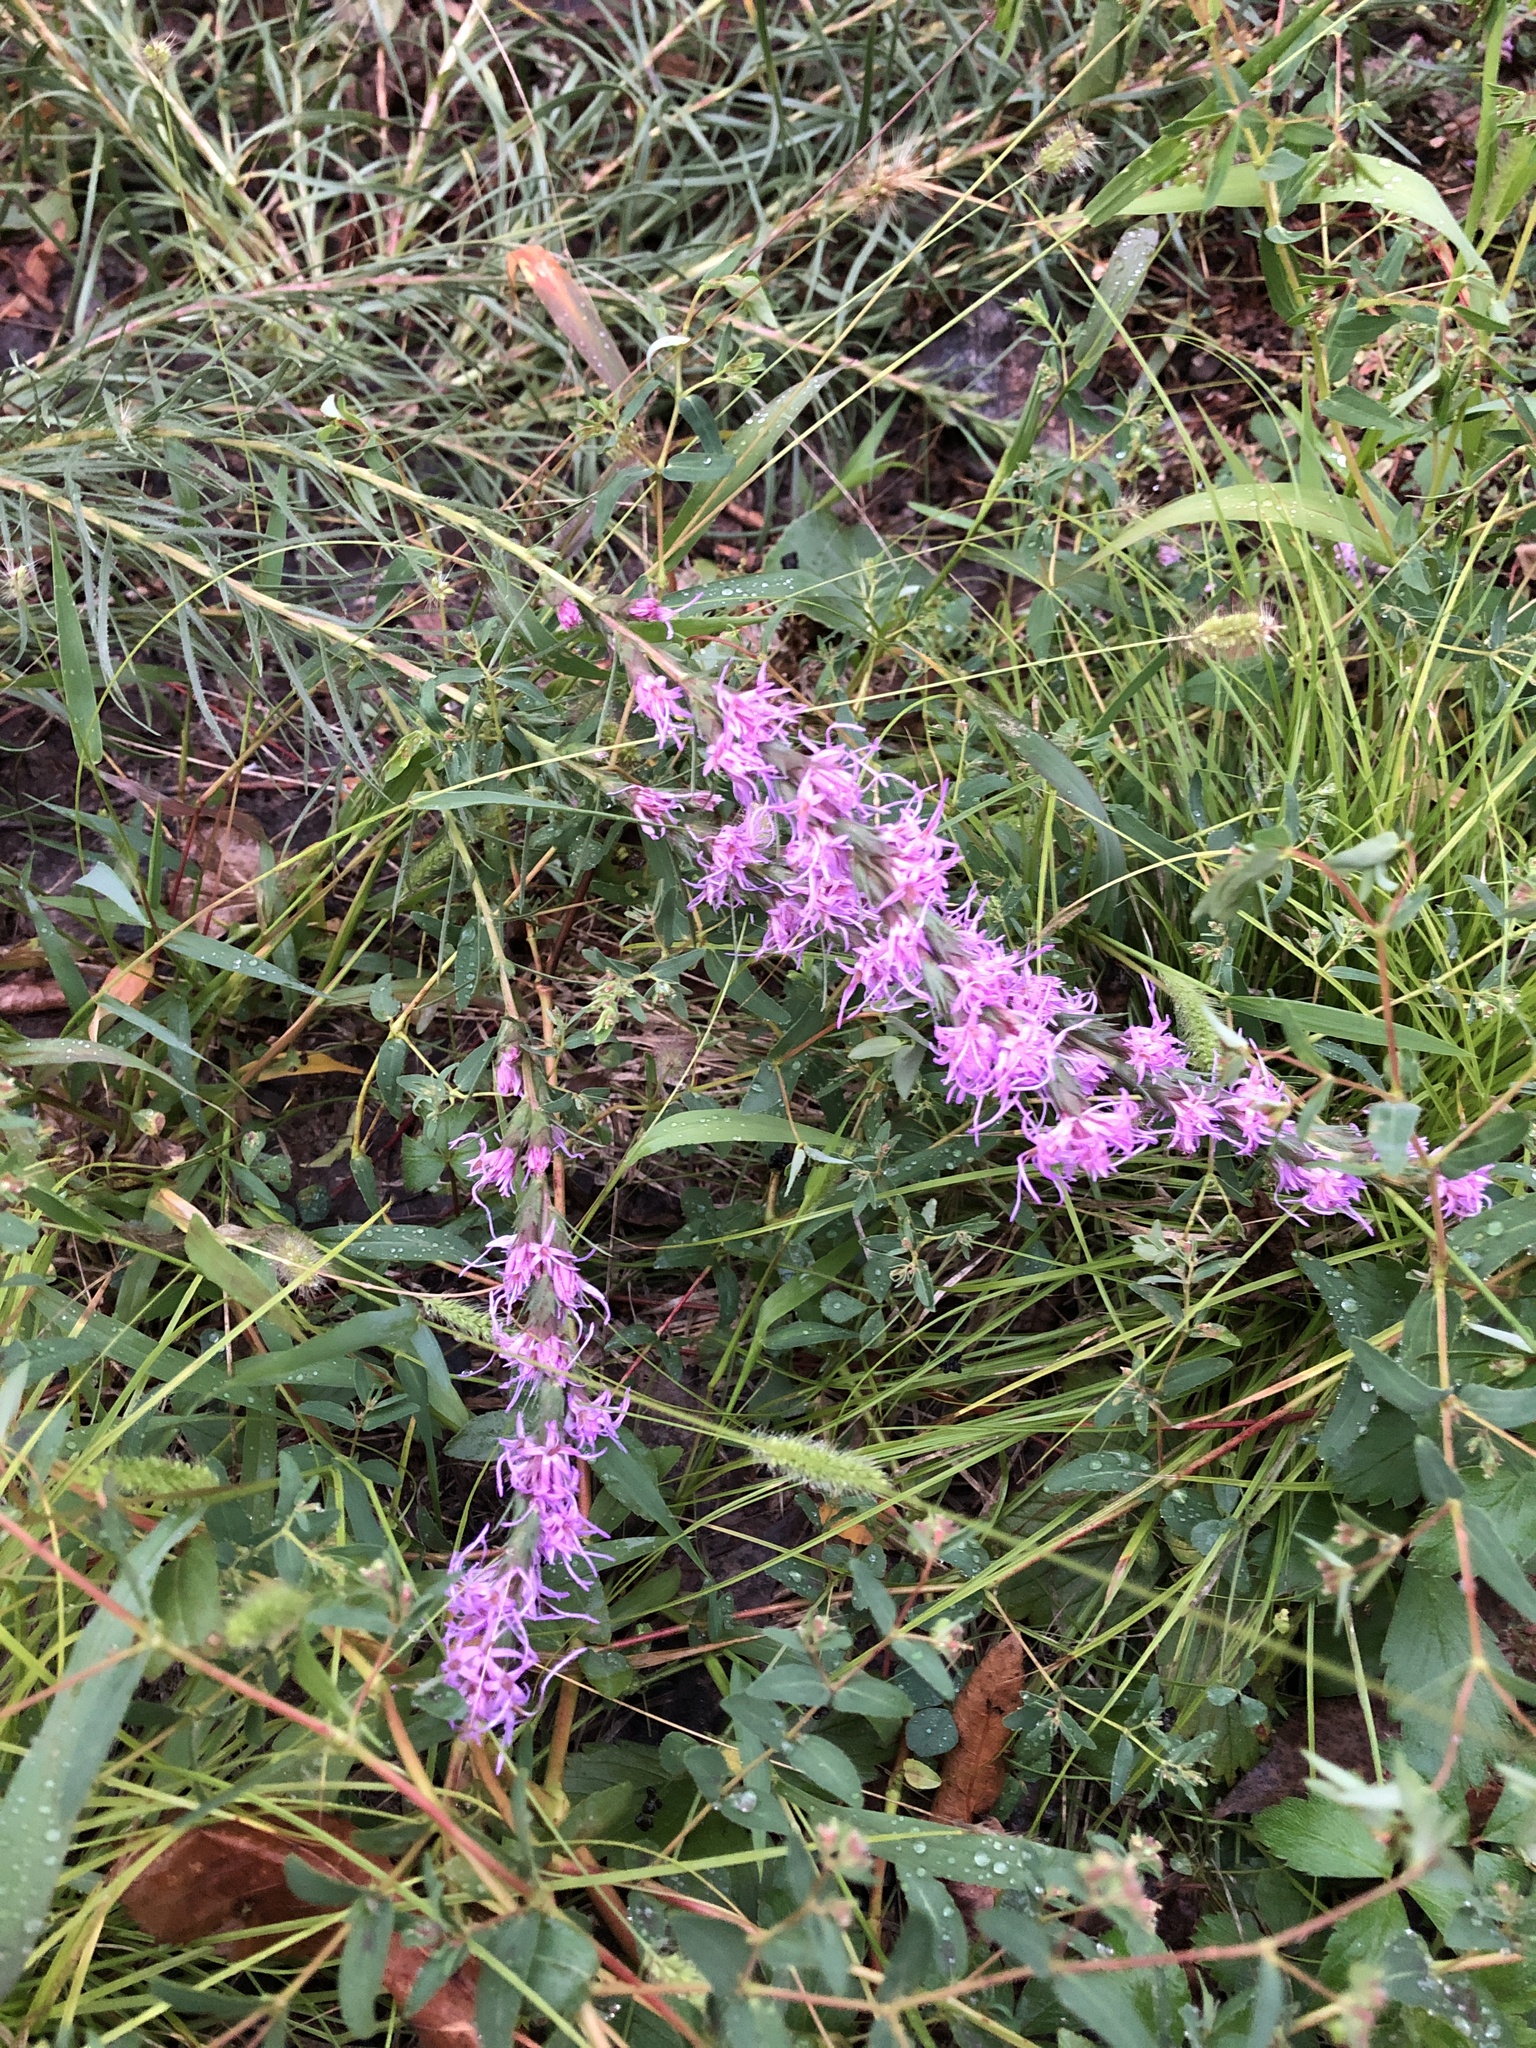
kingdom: Plantae
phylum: Tracheophyta
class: Magnoliopsida
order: Asterales
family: Asteraceae
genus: Liatris
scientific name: Liatris punctata
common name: Dotted gayfeather
